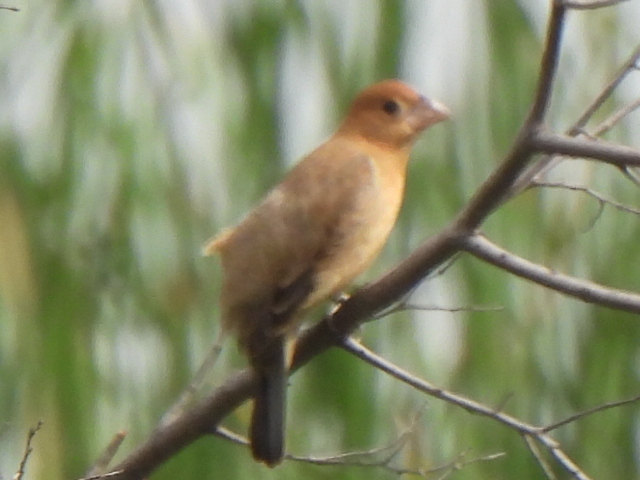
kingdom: Animalia
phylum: Chordata
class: Aves
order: Passeriformes
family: Cardinalidae
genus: Passerina
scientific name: Passerina caerulea
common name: Blue grosbeak
